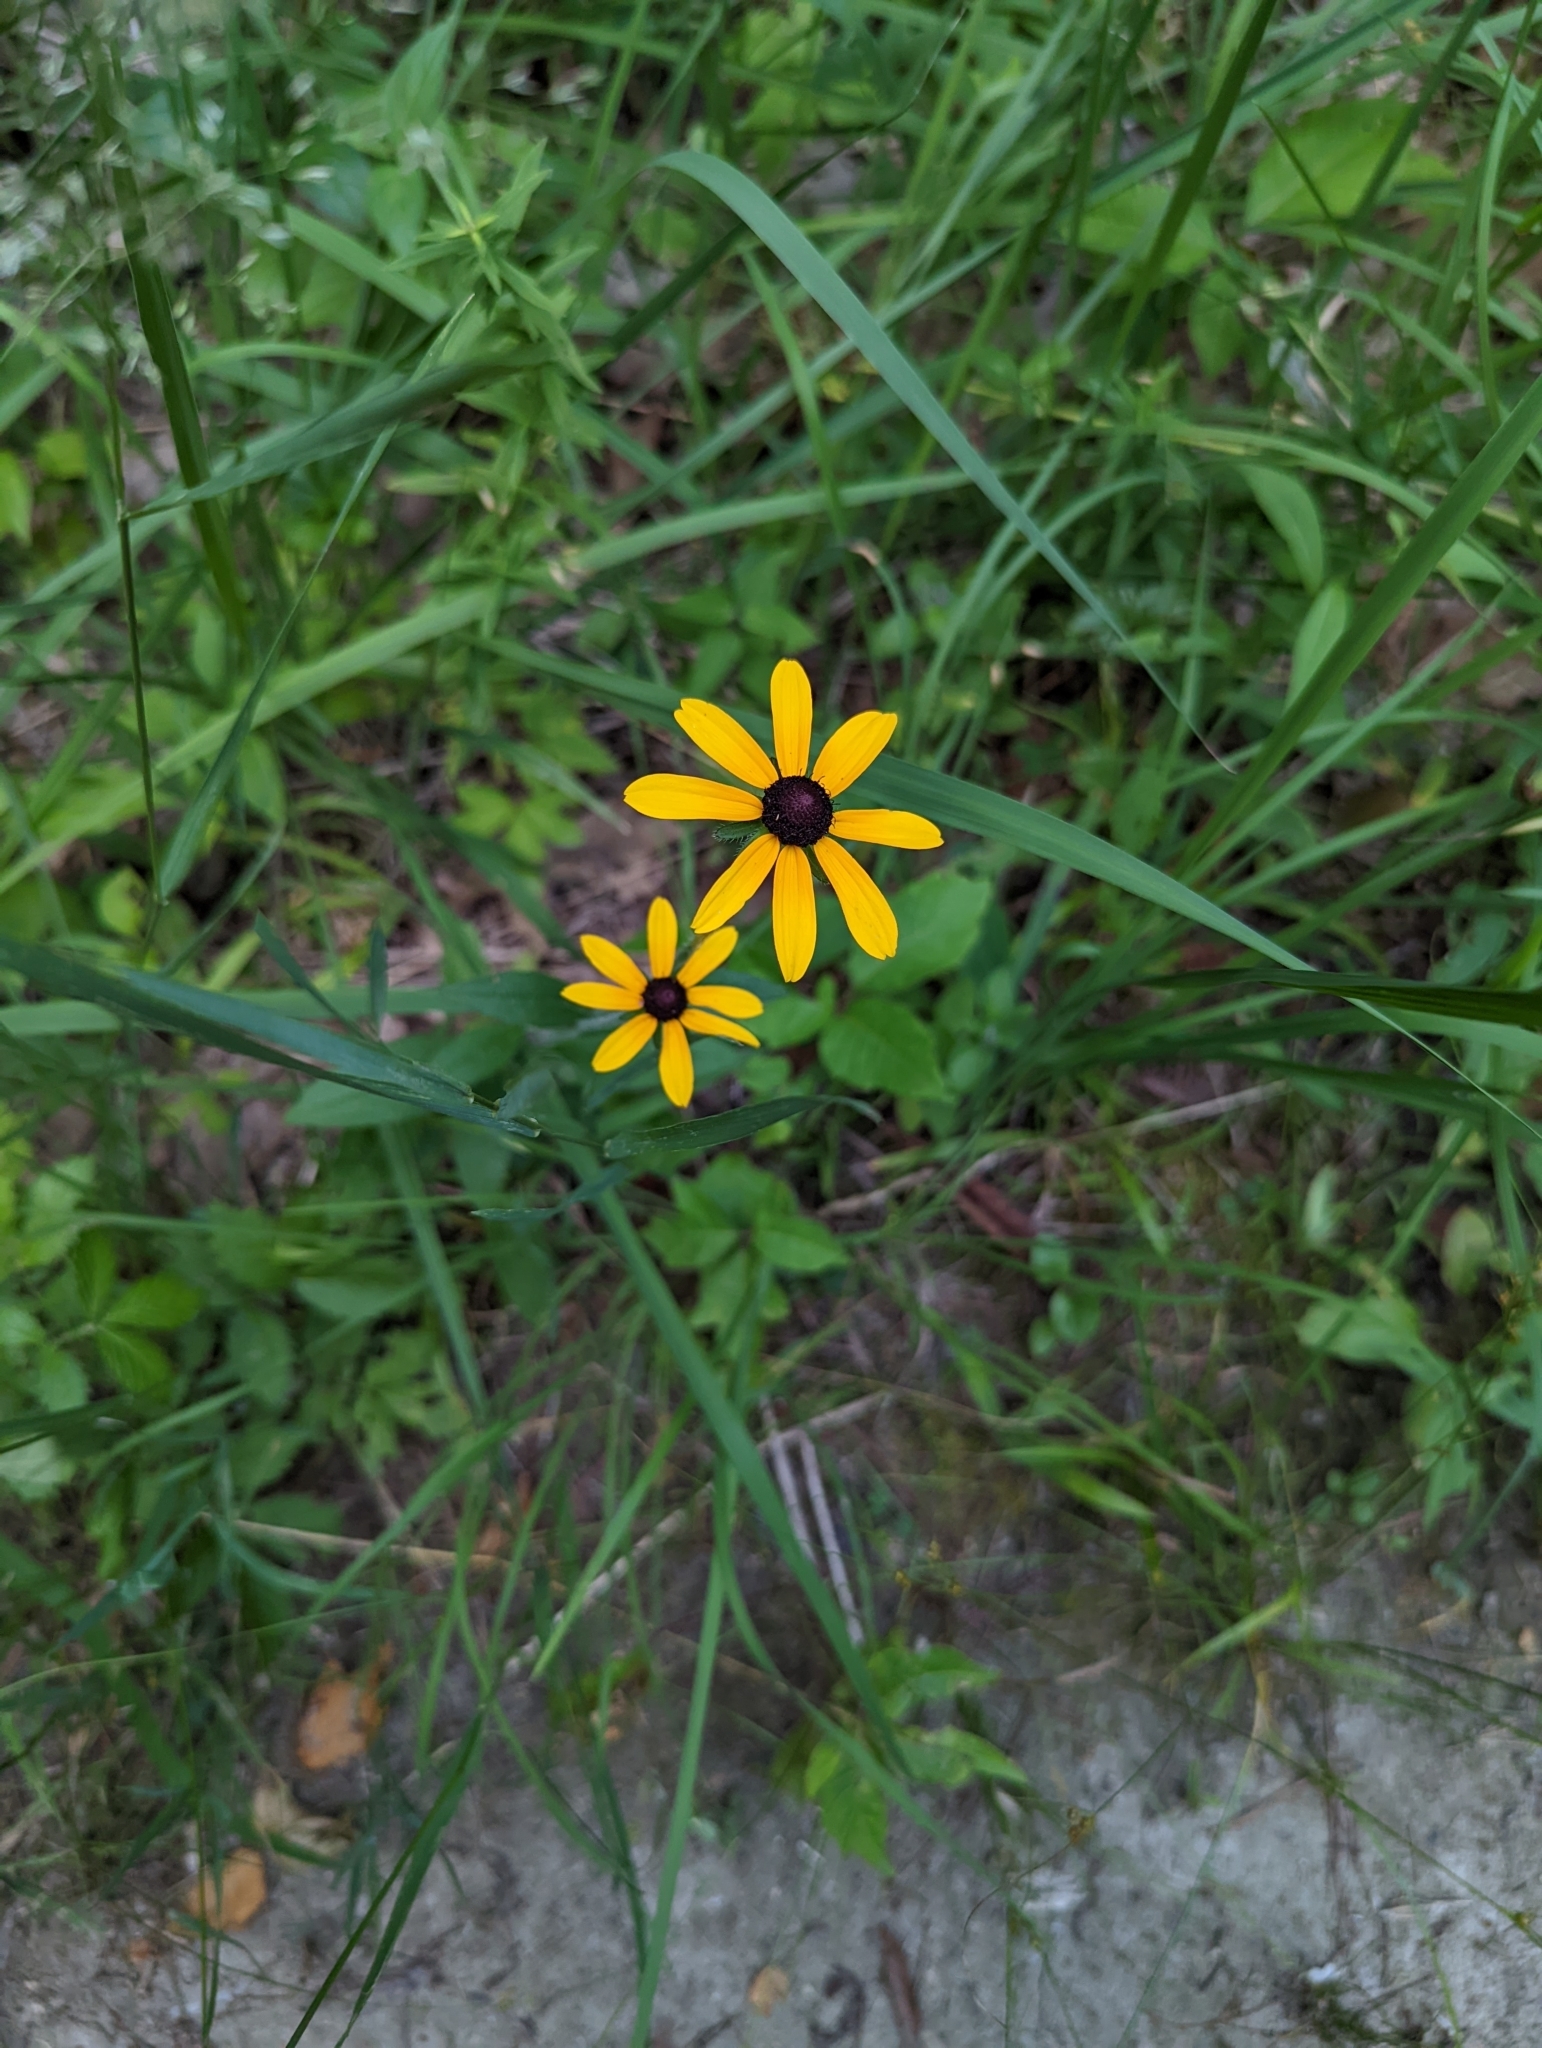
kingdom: Plantae
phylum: Tracheophyta
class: Magnoliopsida
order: Asterales
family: Asteraceae
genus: Rudbeckia
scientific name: Rudbeckia hirta
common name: Black-eyed-susan
